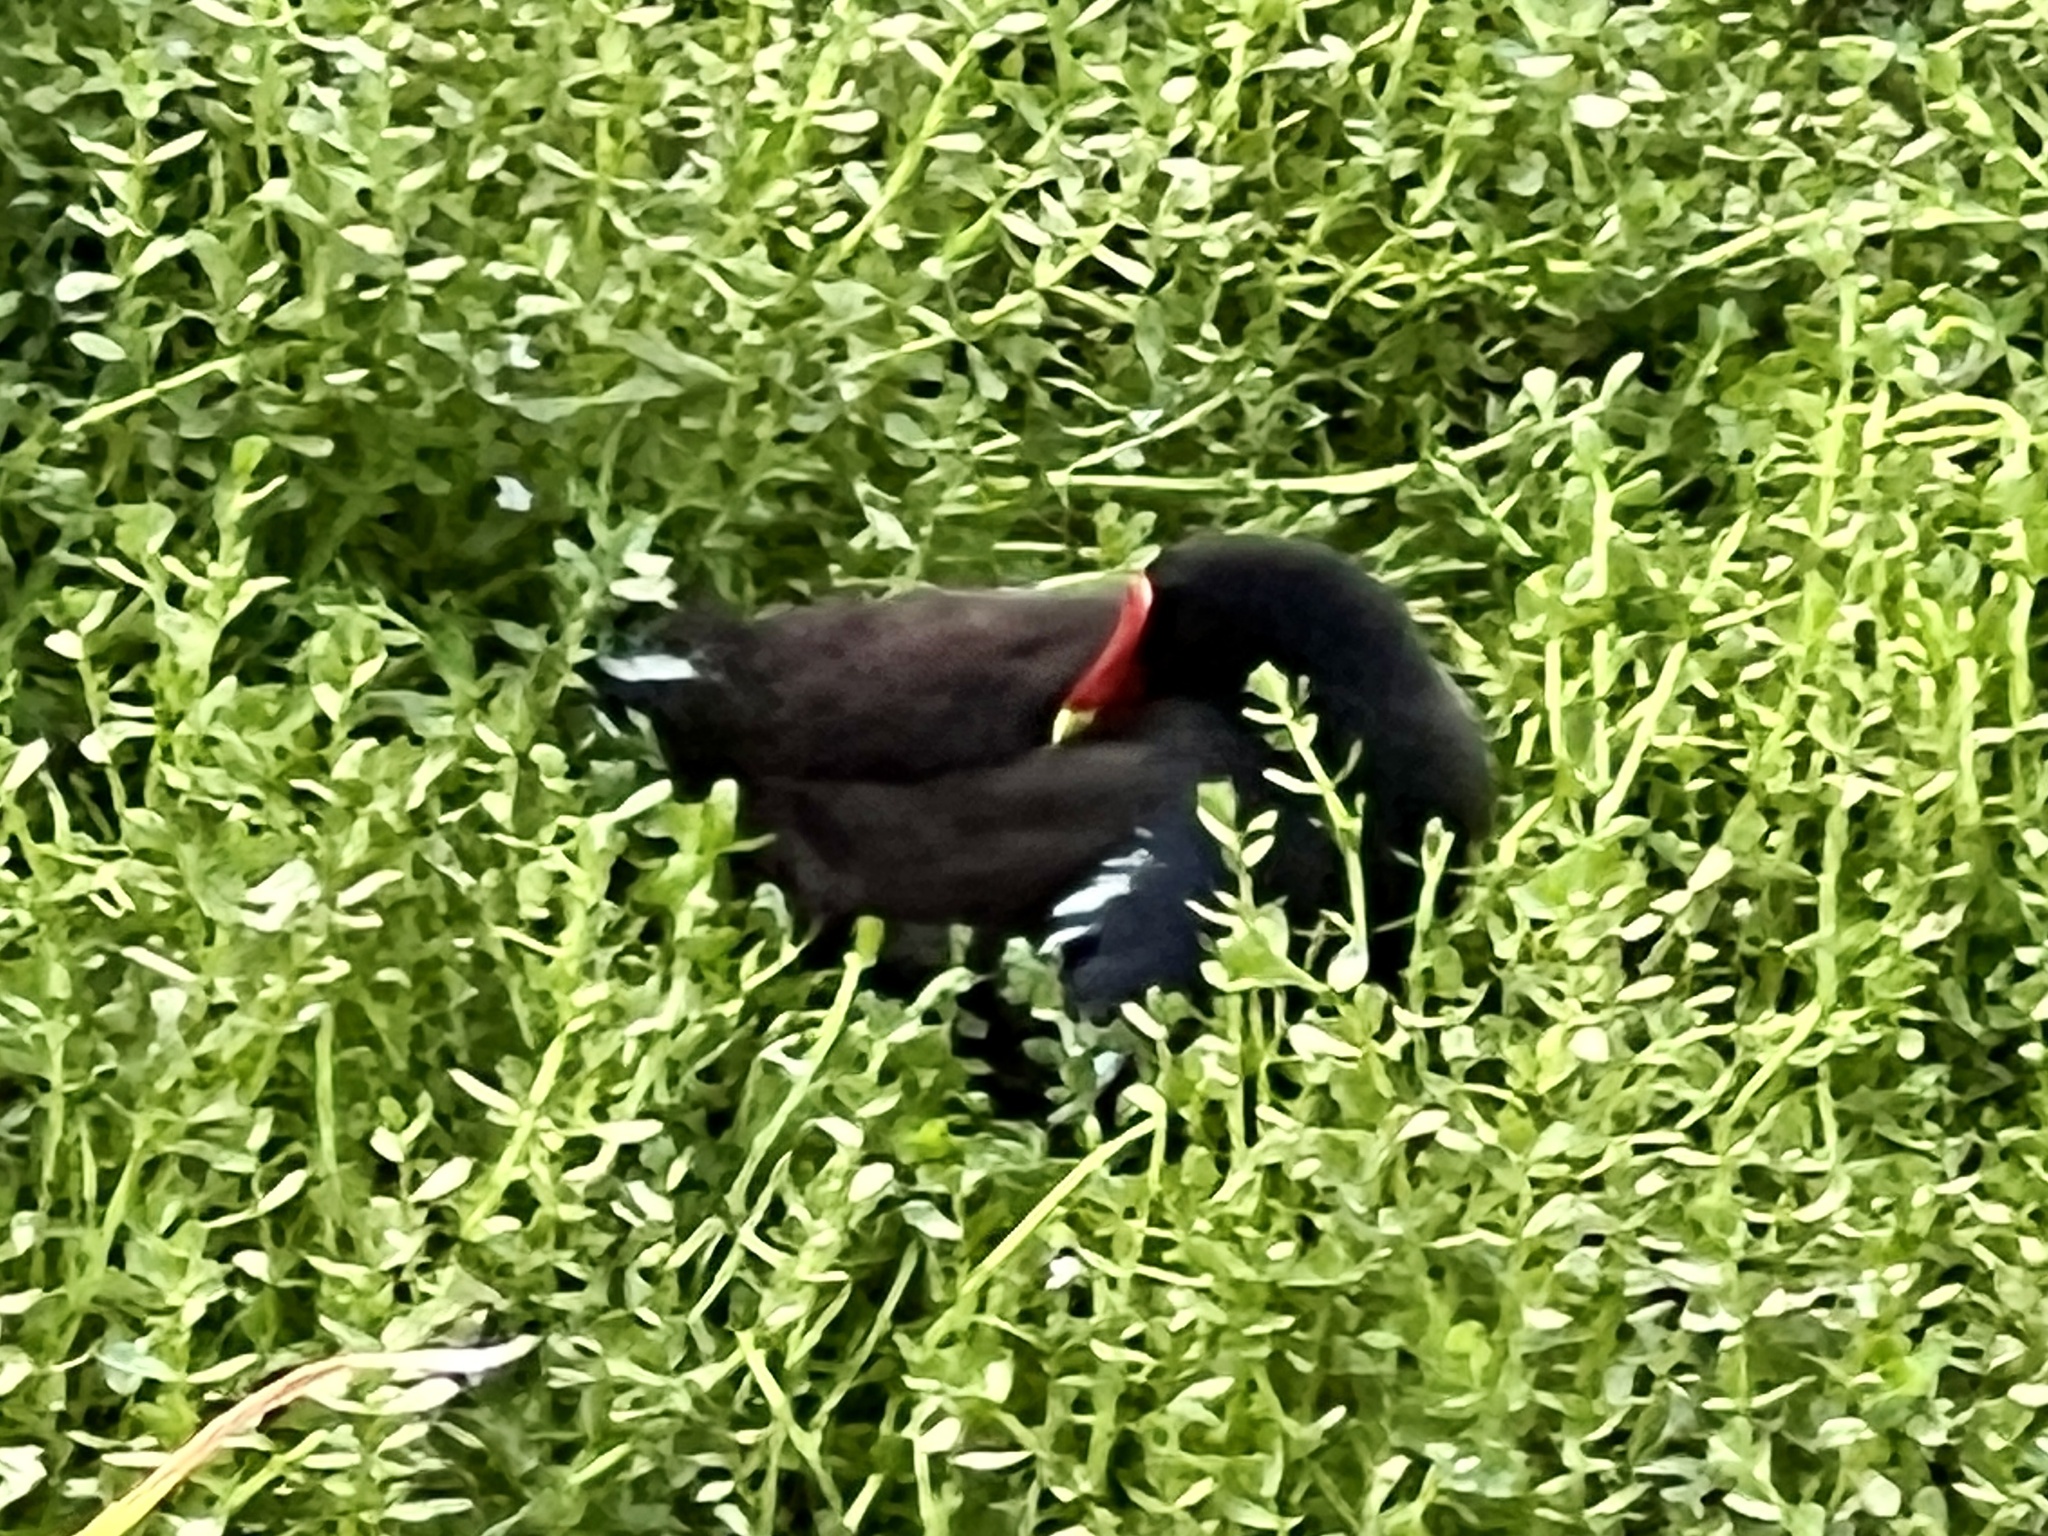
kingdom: Animalia
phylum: Chordata
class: Aves
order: Gruiformes
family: Rallidae
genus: Gallinula
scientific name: Gallinula chloropus
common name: Common moorhen
